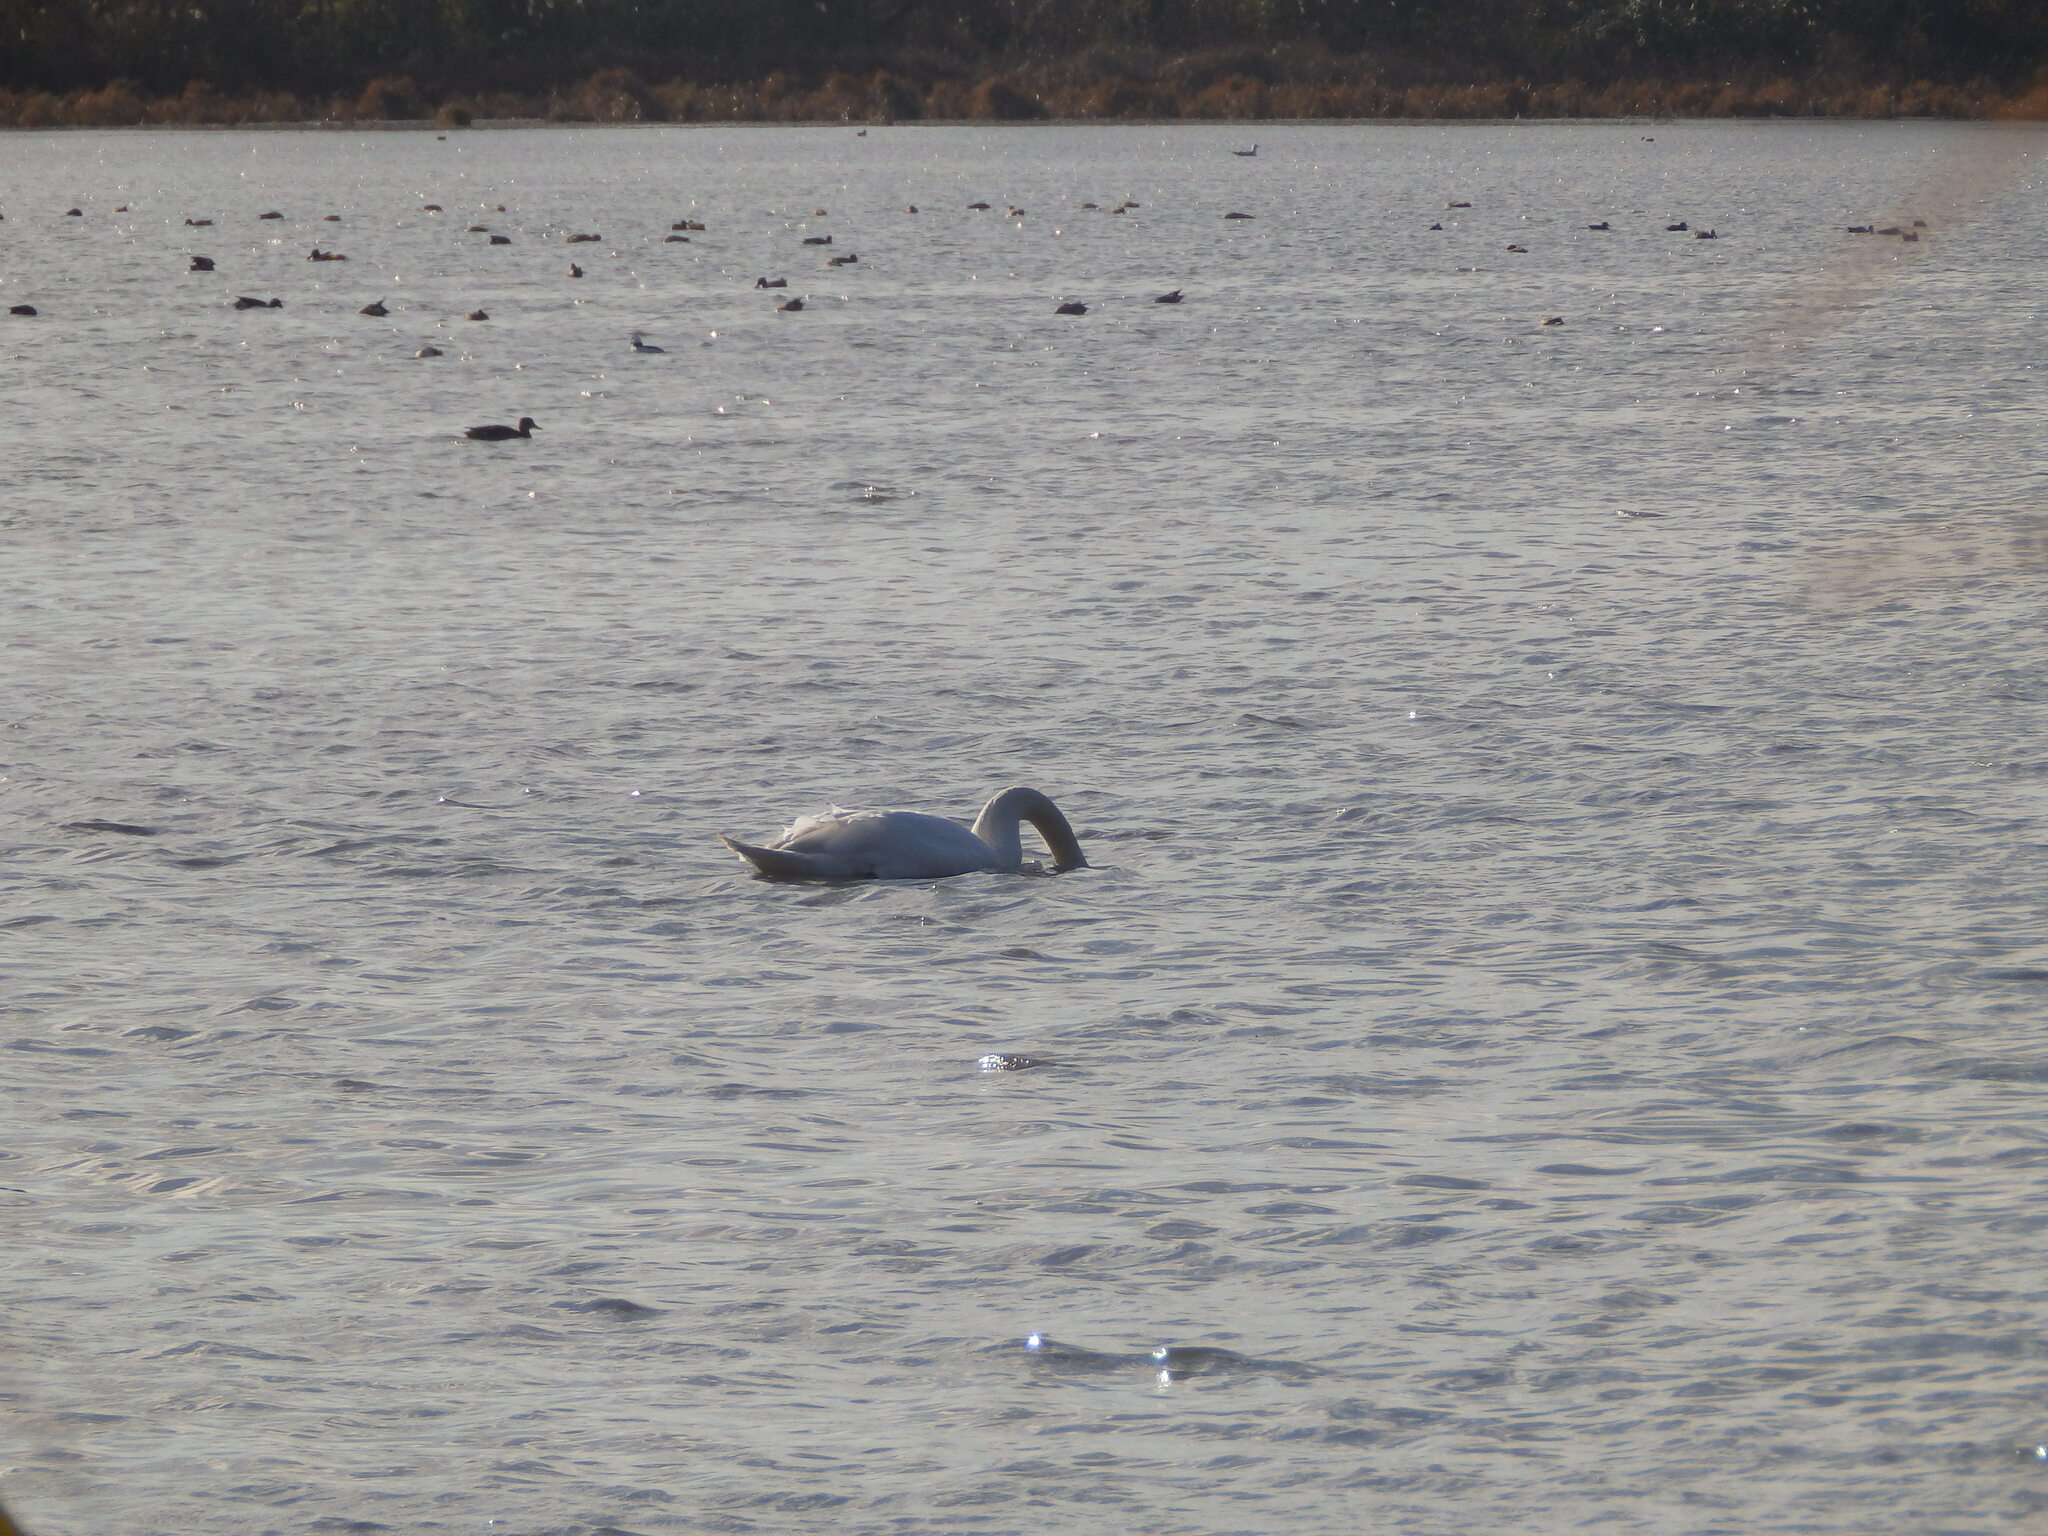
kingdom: Animalia
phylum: Chordata
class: Aves
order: Anseriformes
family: Anatidae
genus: Cygnus
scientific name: Cygnus olor
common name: Mute swan
